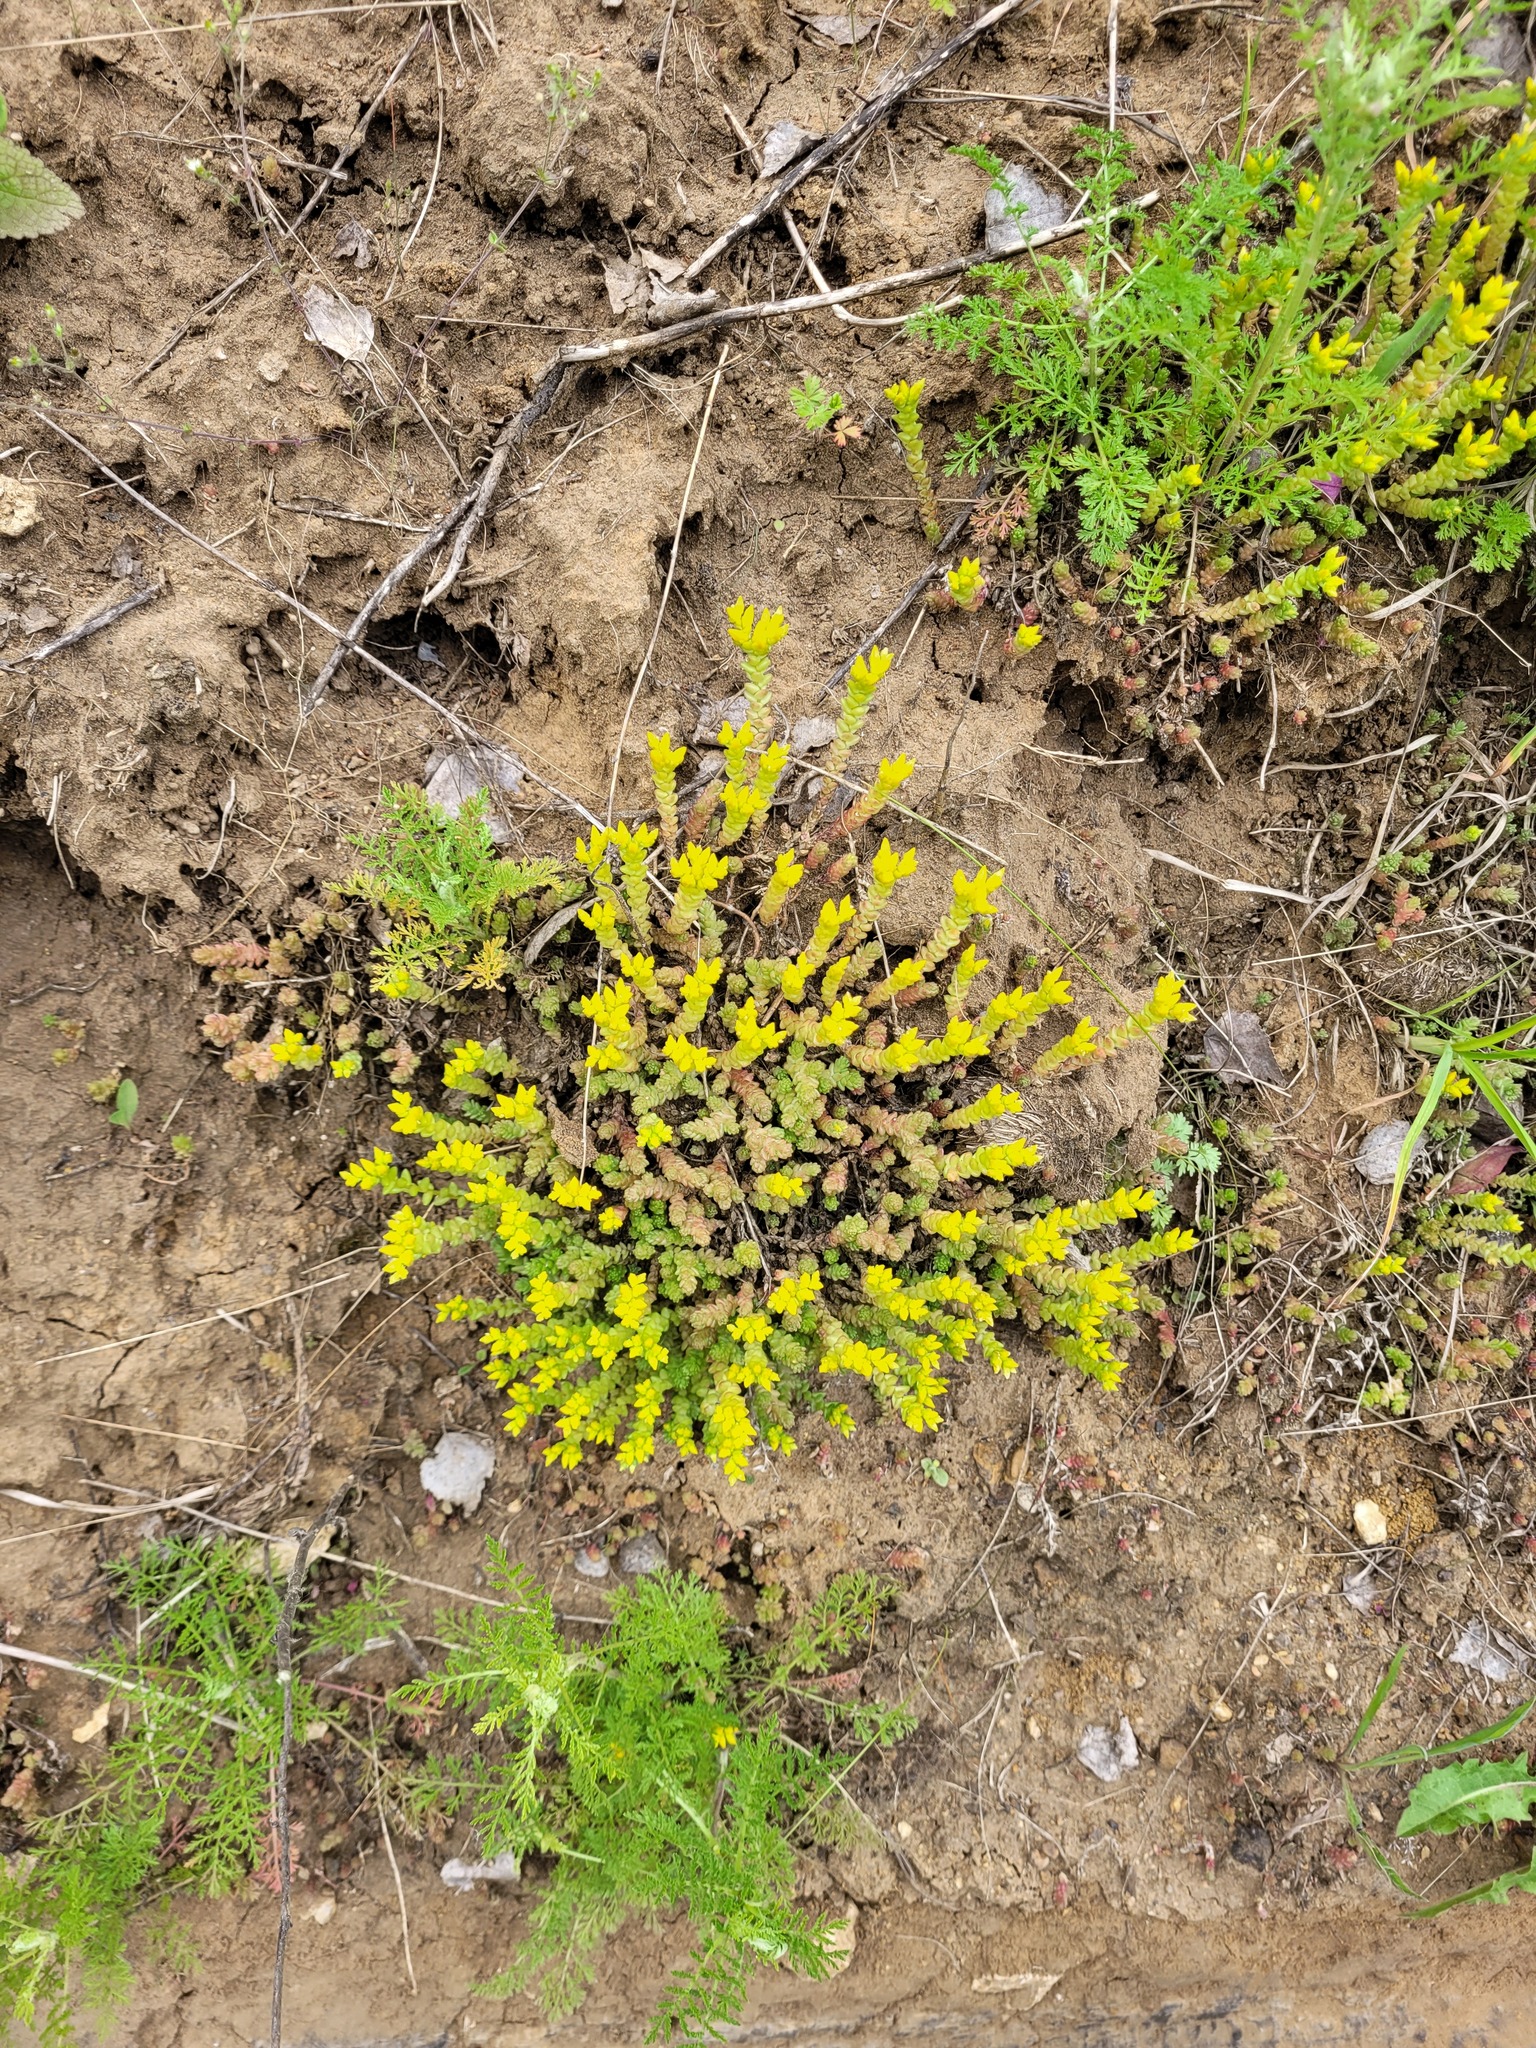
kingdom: Plantae
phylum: Tracheophyta
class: Magnoliopsida
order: Saxifragales
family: Crassulaceae
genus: Sedum
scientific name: Sedum acre
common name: Biting stonecrop
